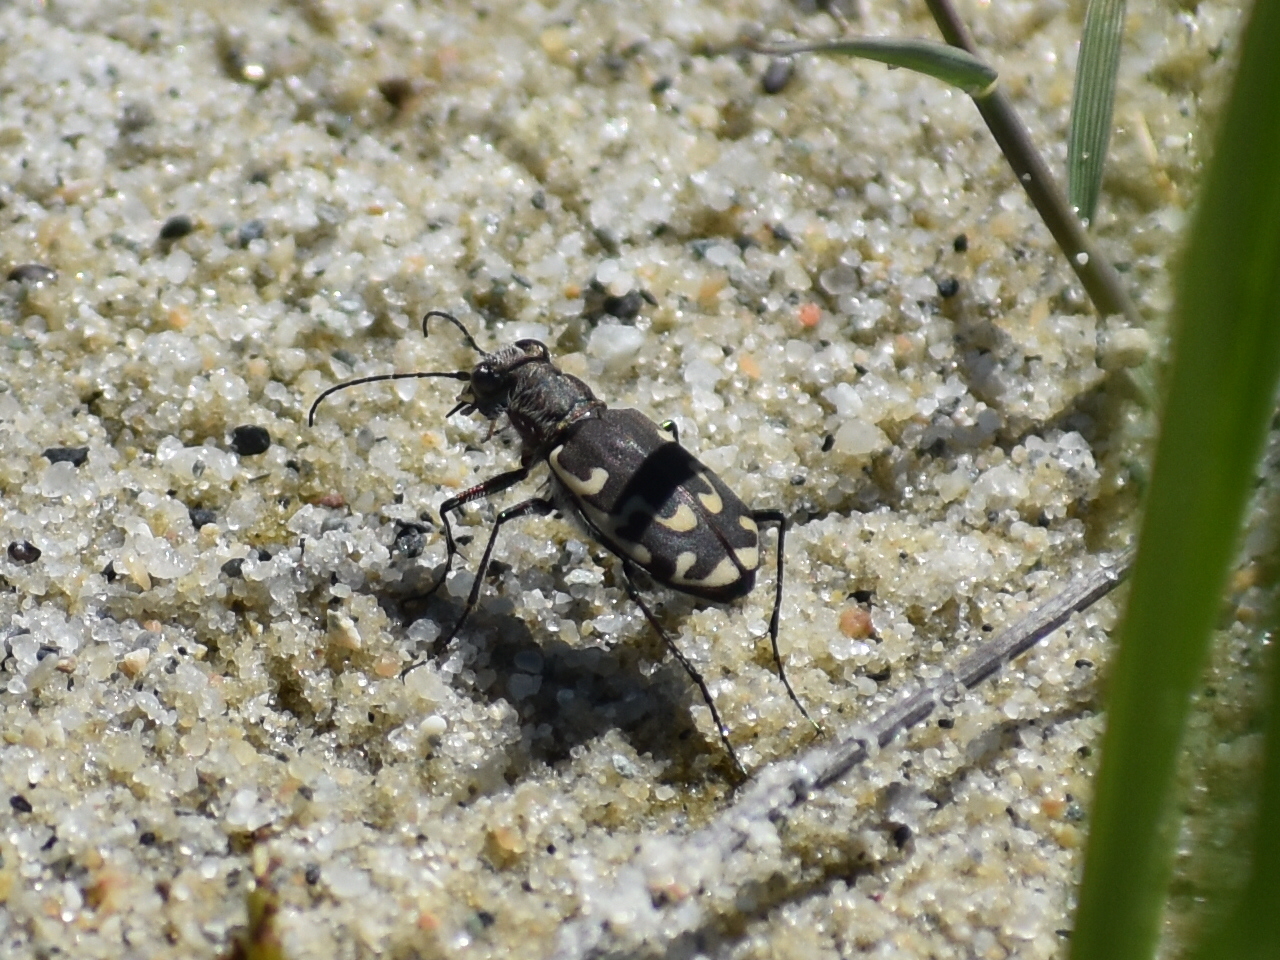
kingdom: Animalia
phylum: Arthropoda
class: Insecta
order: Coleoptera
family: Carabidae
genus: Cicindela
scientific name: Cicindela repanda
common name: Bronzed tiger beetle
